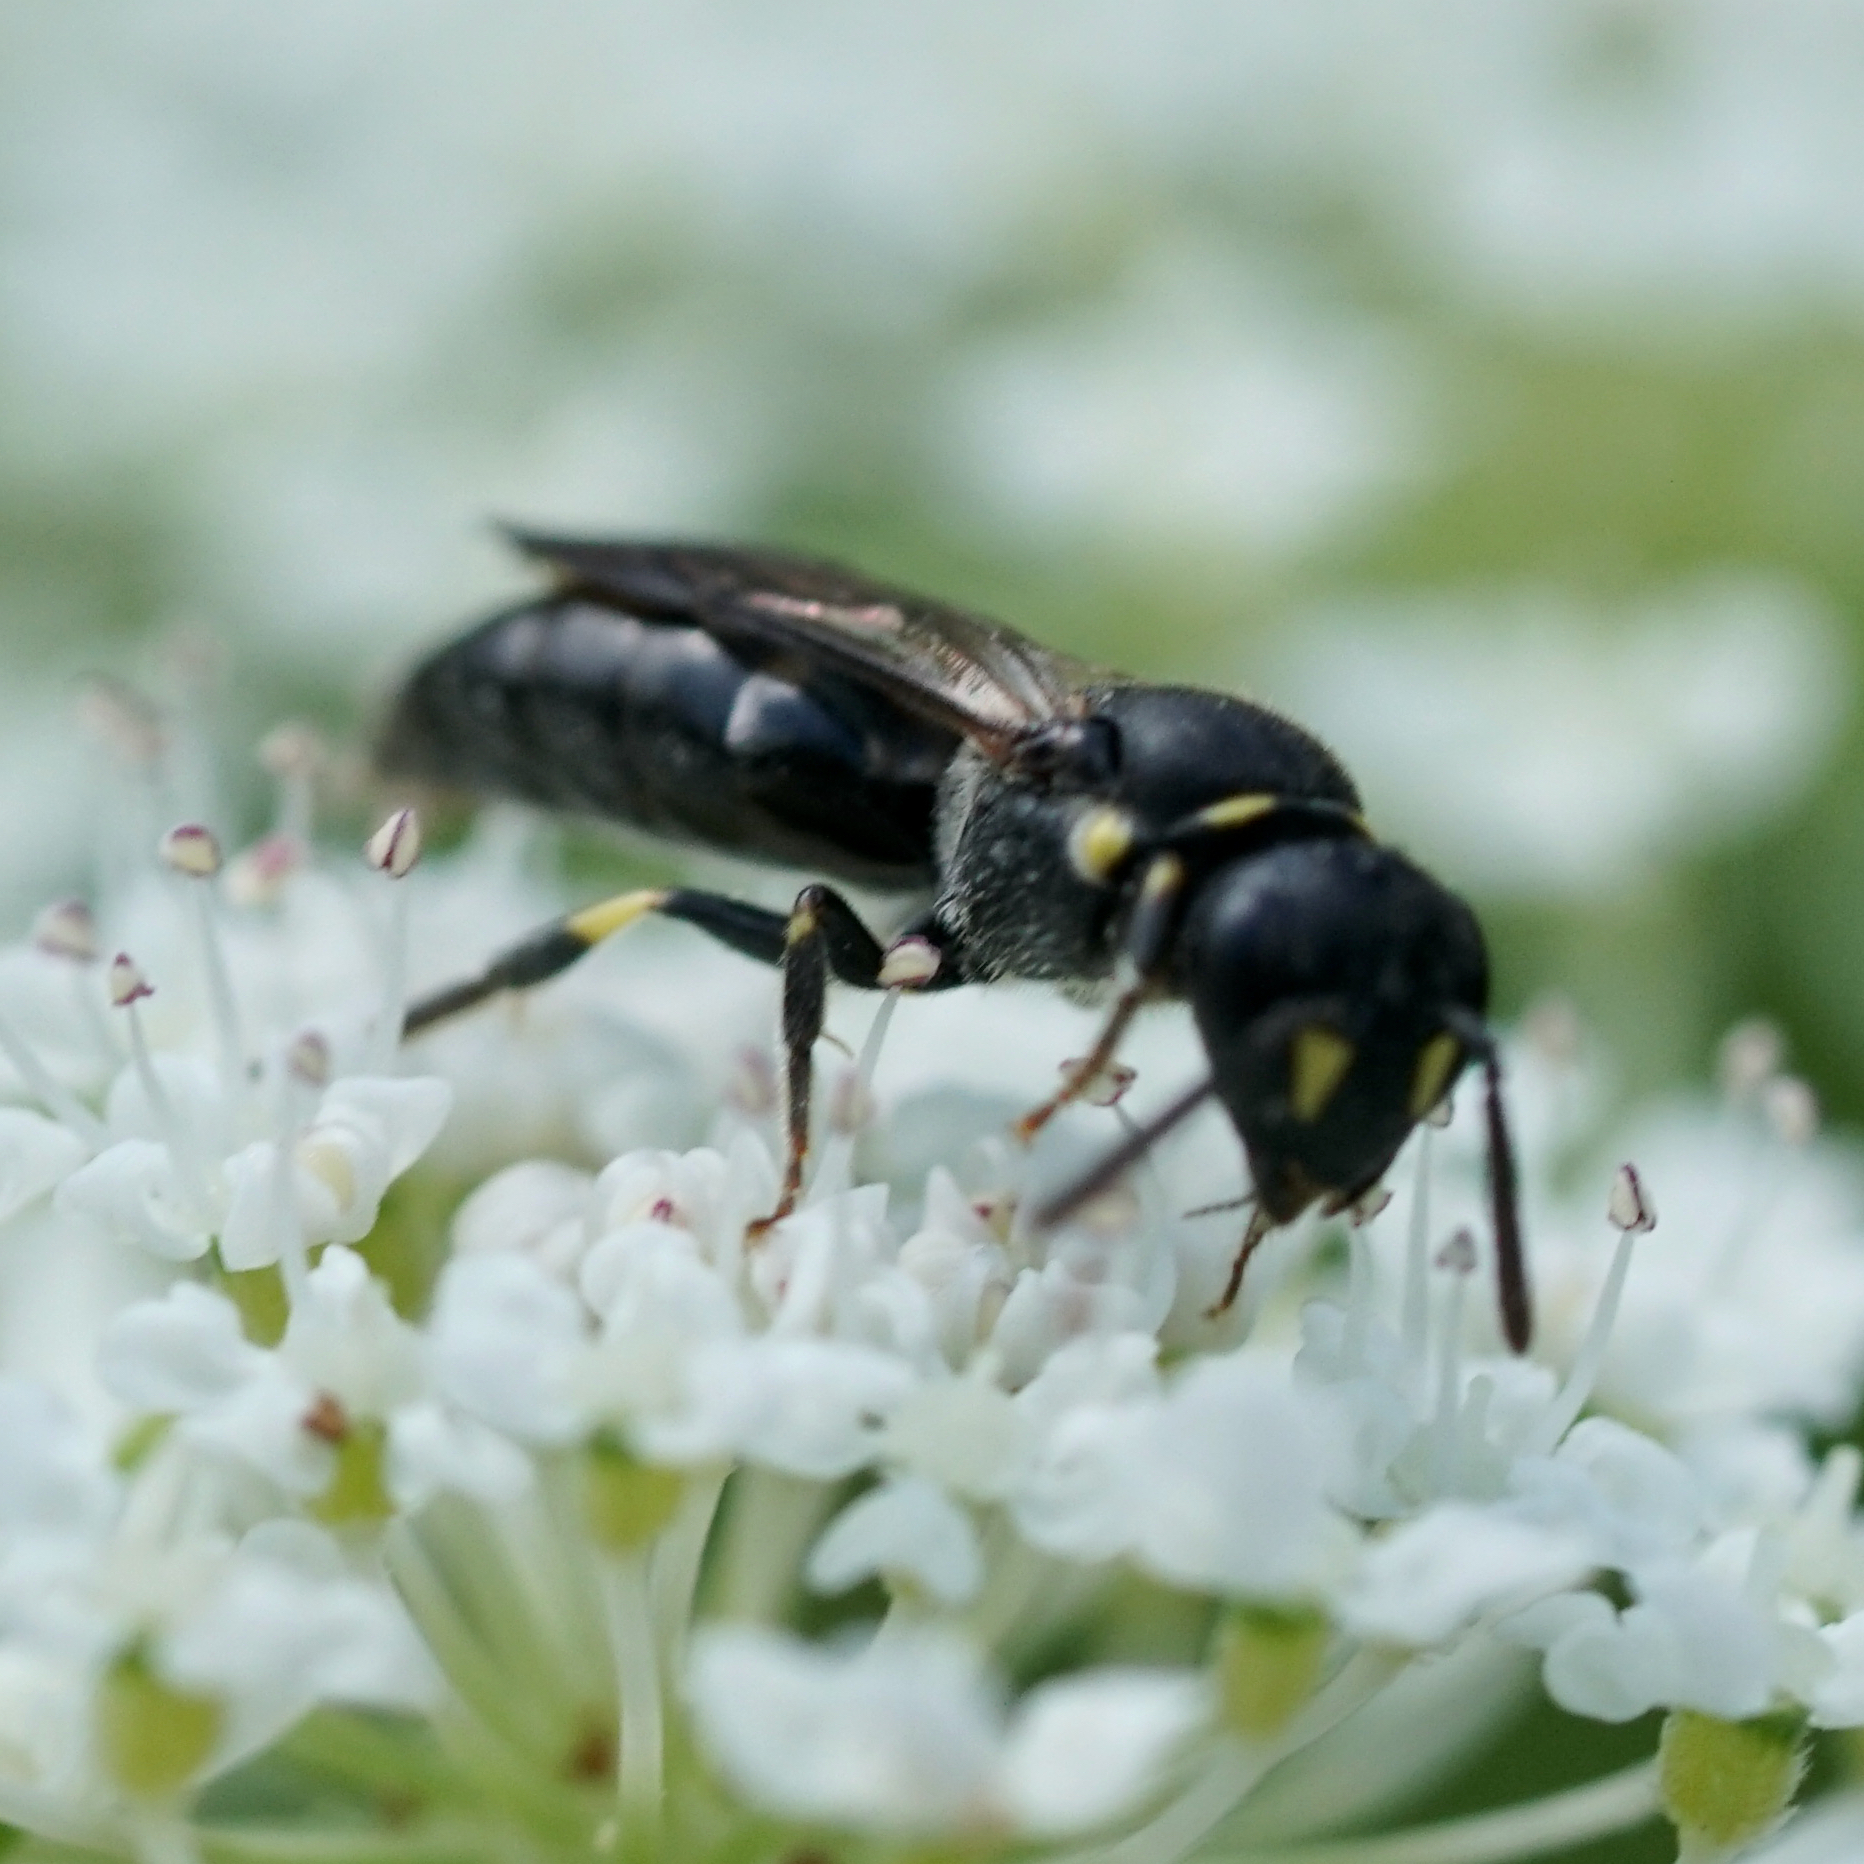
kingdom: Animalia
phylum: Arthropoda
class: Insecta
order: Hymenoptera
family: Colletidae
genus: Prosopis
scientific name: Prosopis
